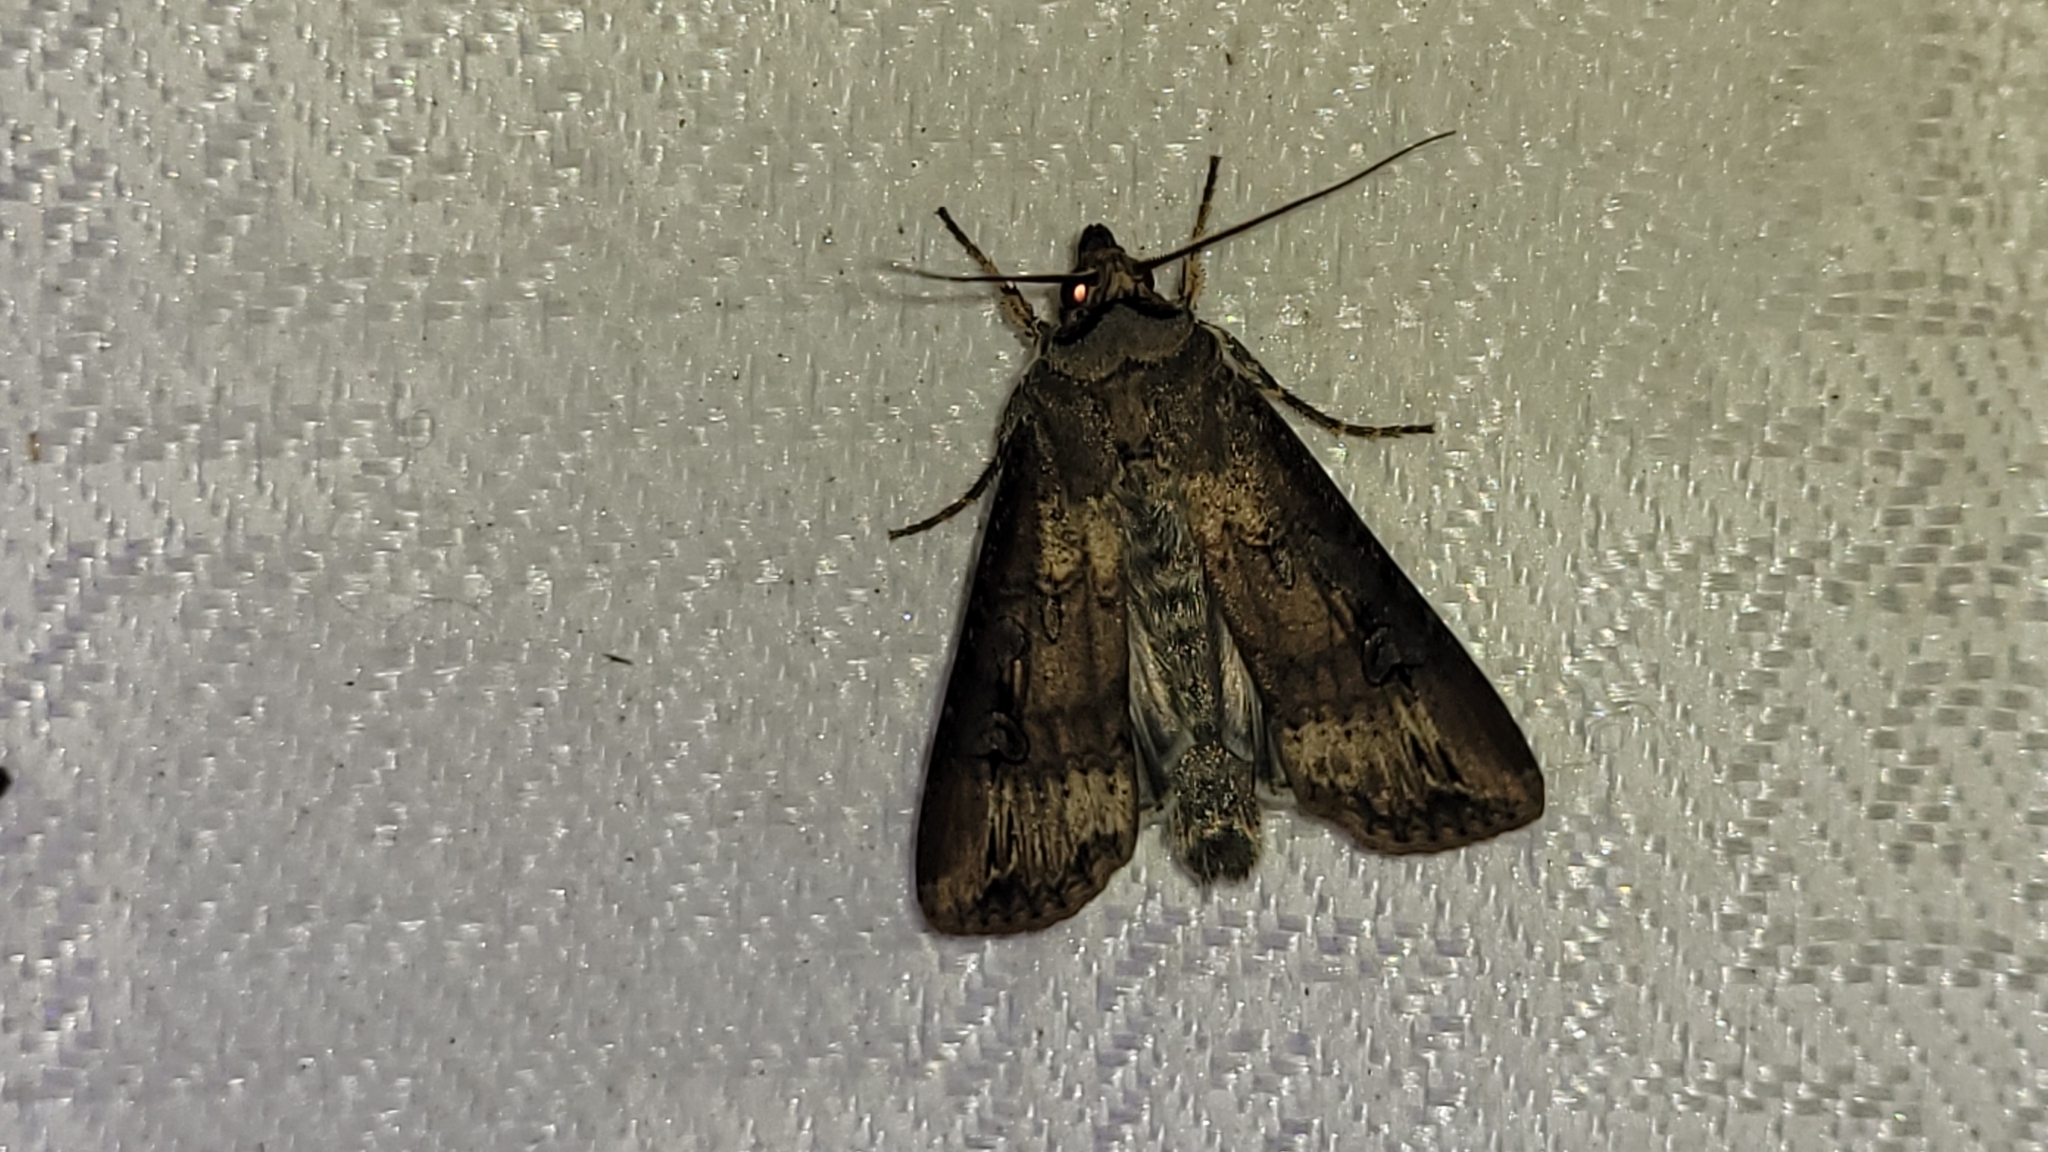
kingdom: Animalia
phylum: Arthropoda
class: Insecta
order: Lepidoptera
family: Noctuidae
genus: Agrotis
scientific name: Agrotis ipsilon
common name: Dark sword-grass
